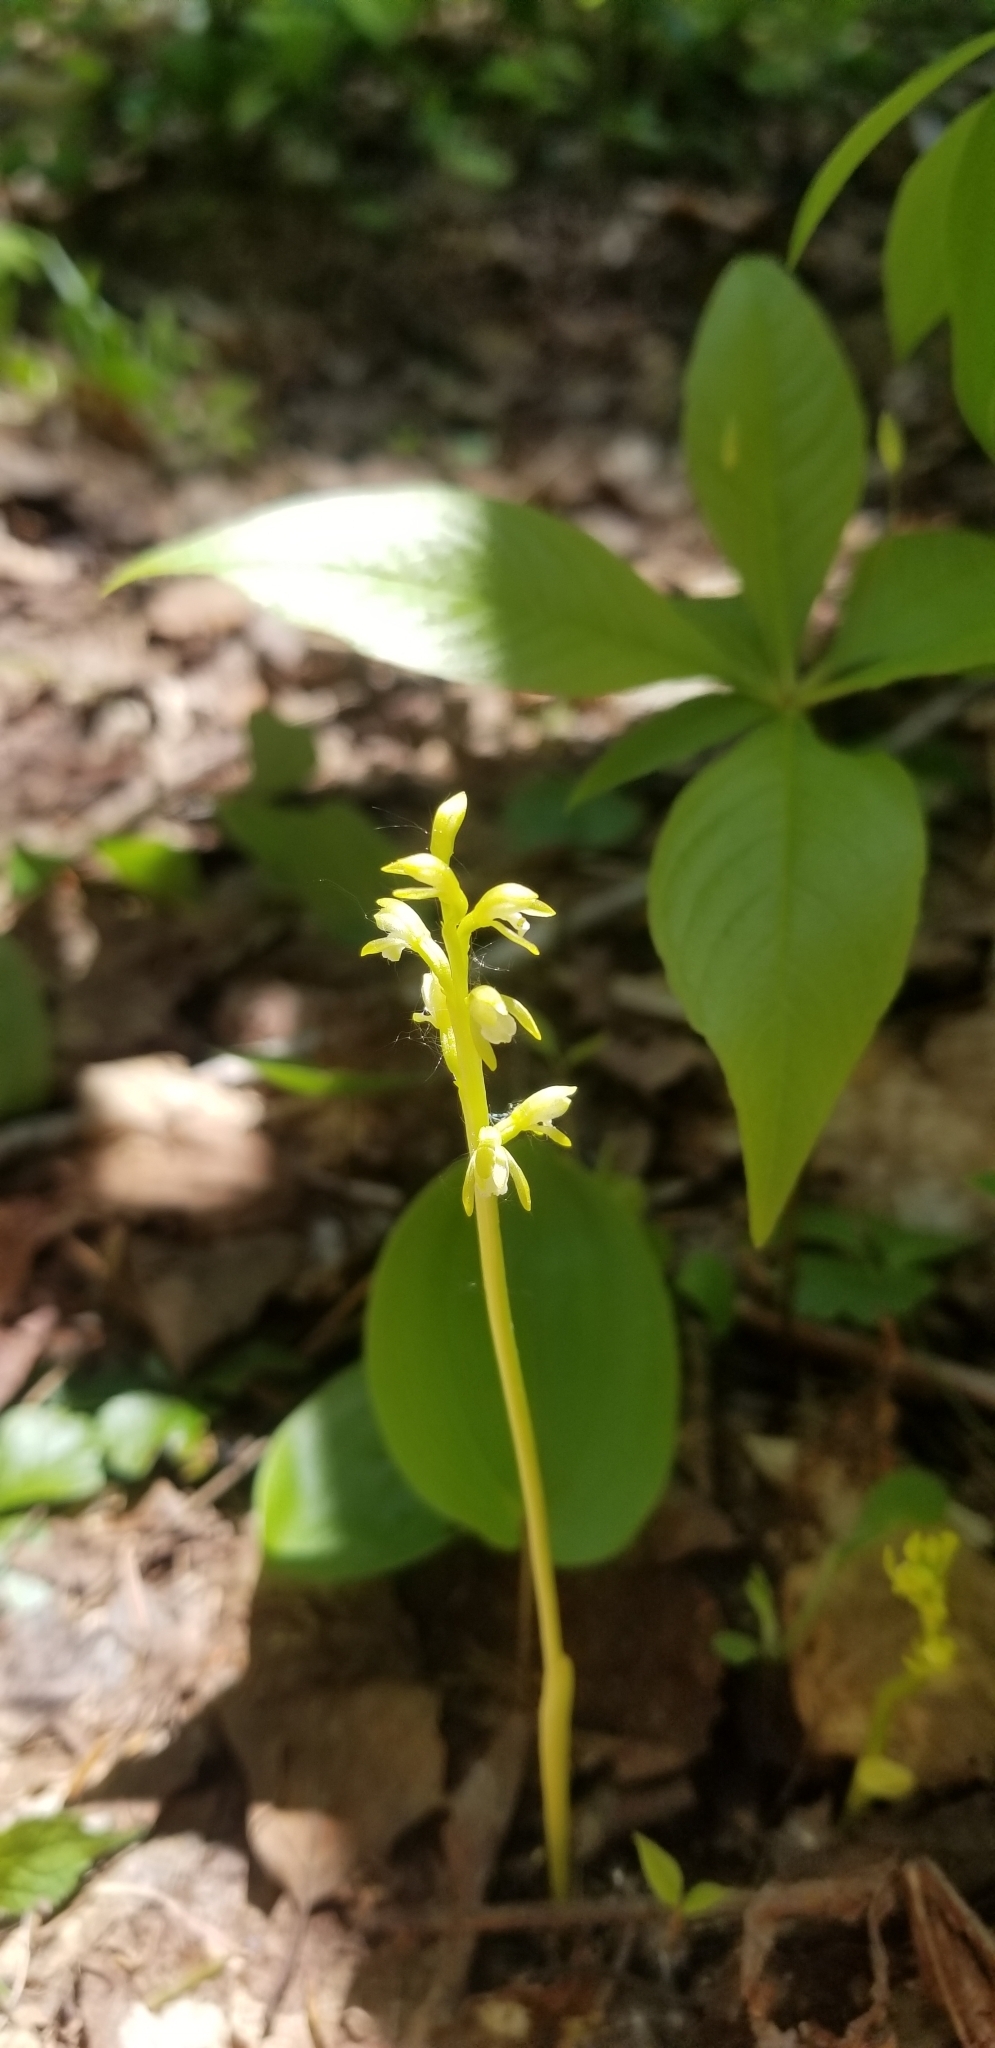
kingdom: Plantae
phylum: Tracheophyta
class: Liliopsida
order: Asparagales
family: Orchidaceae
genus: Corallorhiza
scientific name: Corallorhiza trifida
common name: Yellow coralroot
